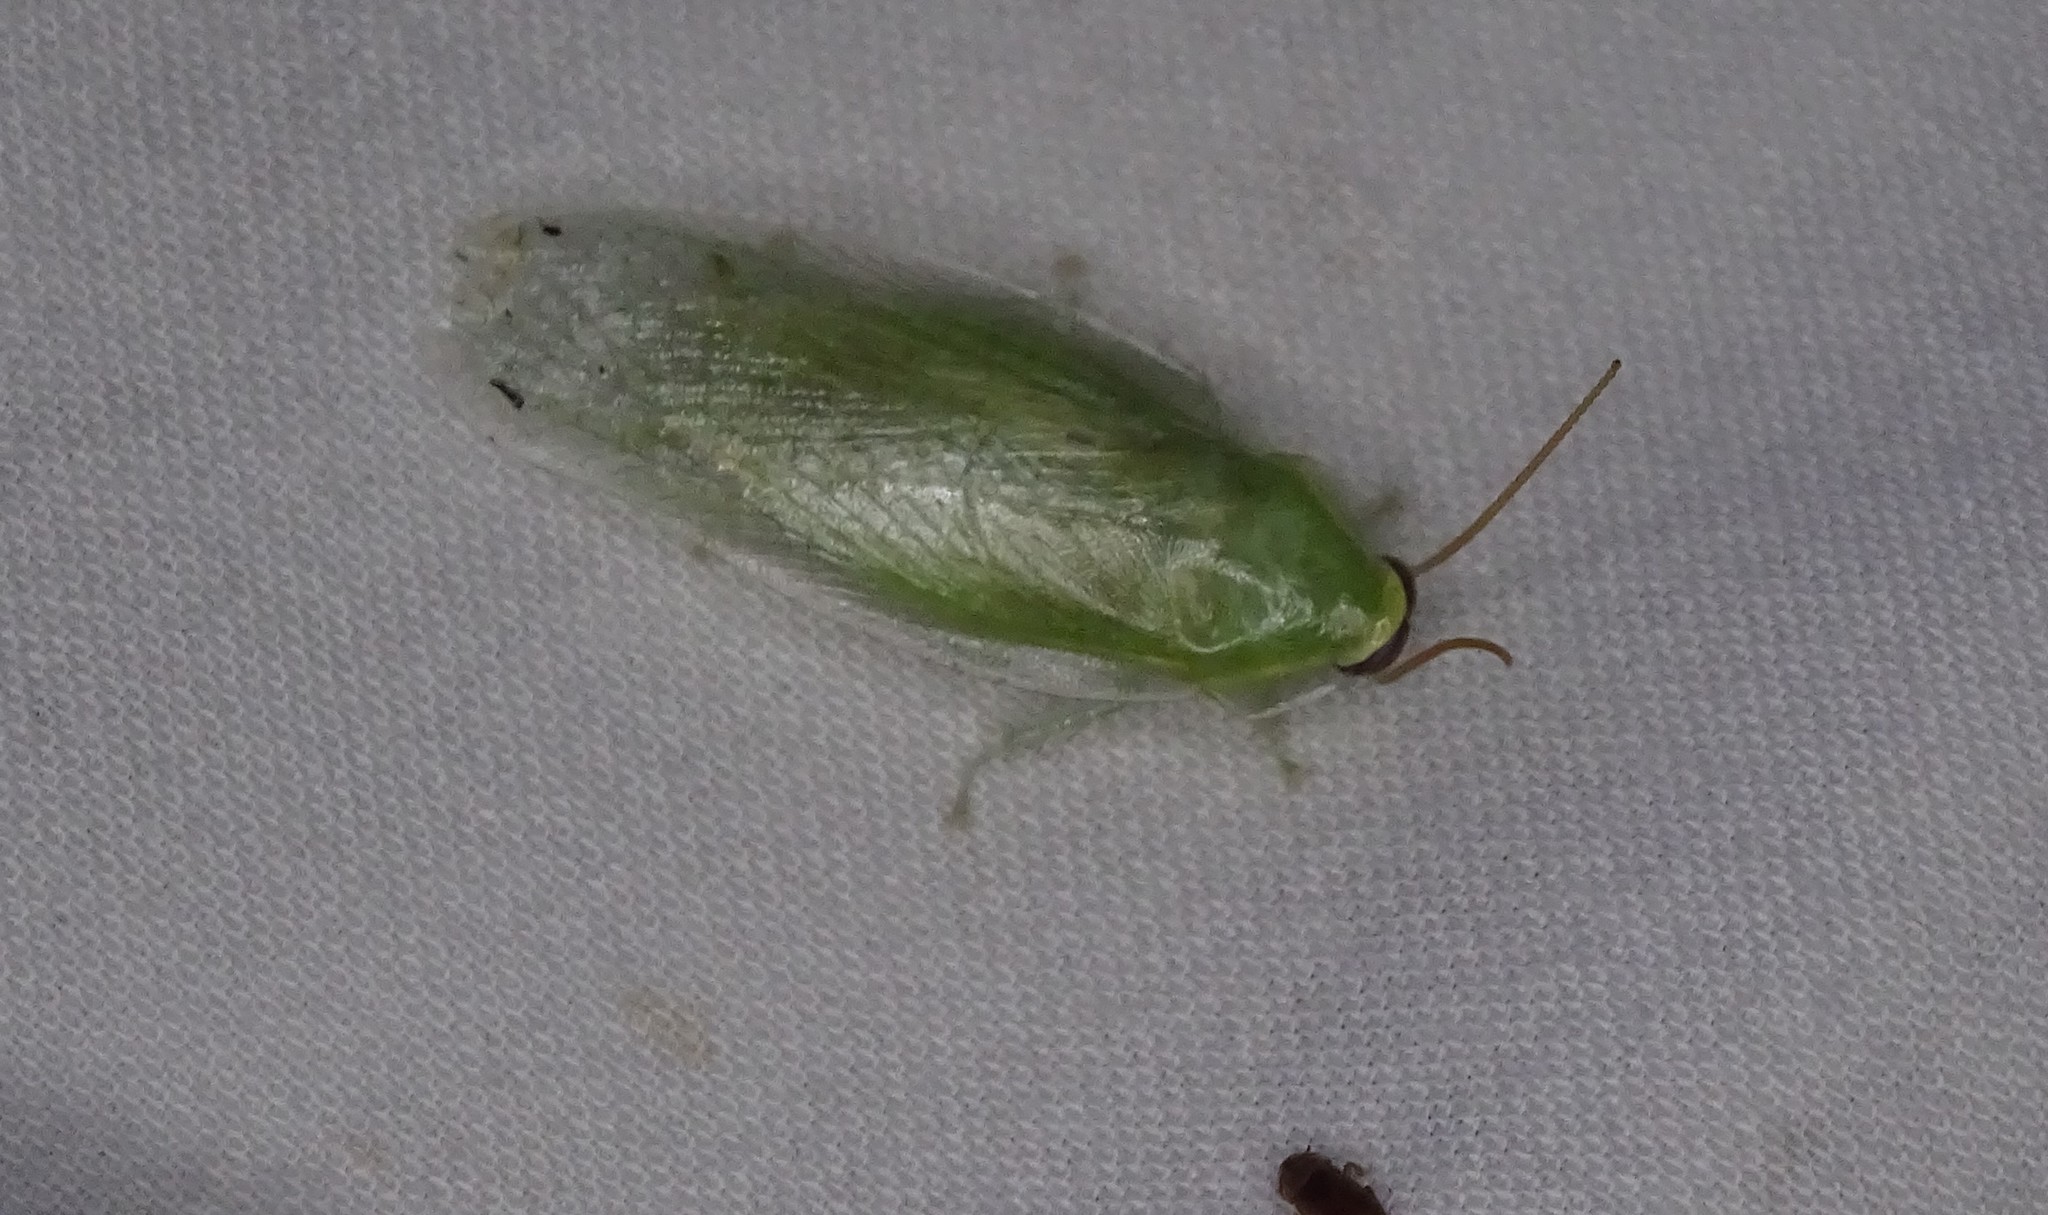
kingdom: Animalia
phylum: Arthropoda
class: Insecta
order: Blattodea
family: Blaberidae
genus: Panchlora
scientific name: Panchlora nivea
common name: Cuban cockroach
